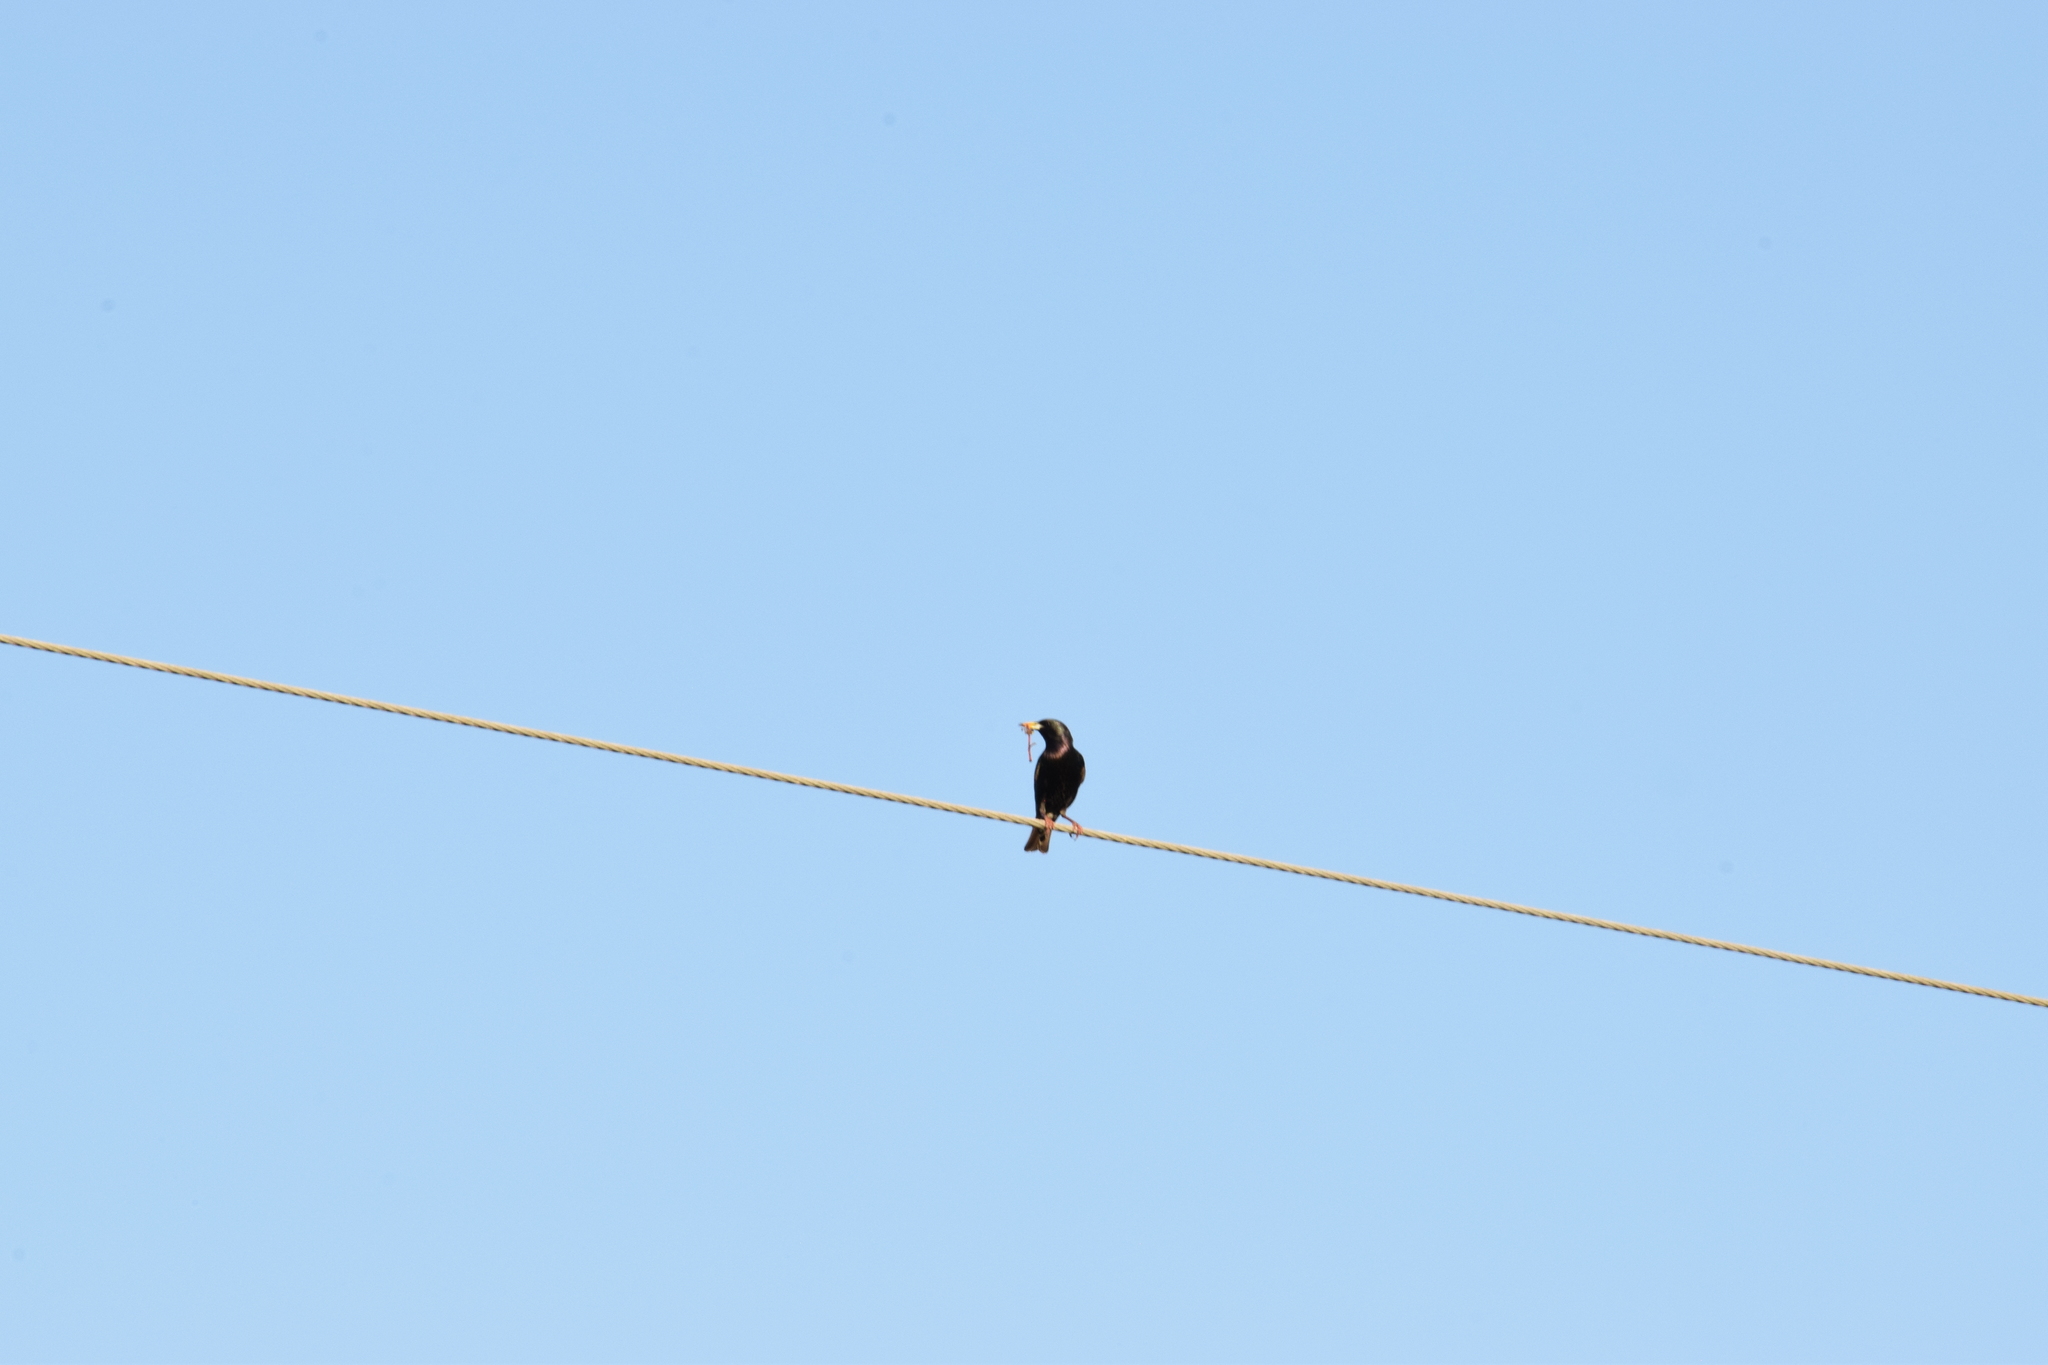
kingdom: Animalia
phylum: Chordata
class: Aves
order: Passeriformes
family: Sturnidae
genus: Sturnus
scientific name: Sturnus vulgaris
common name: Common starling
